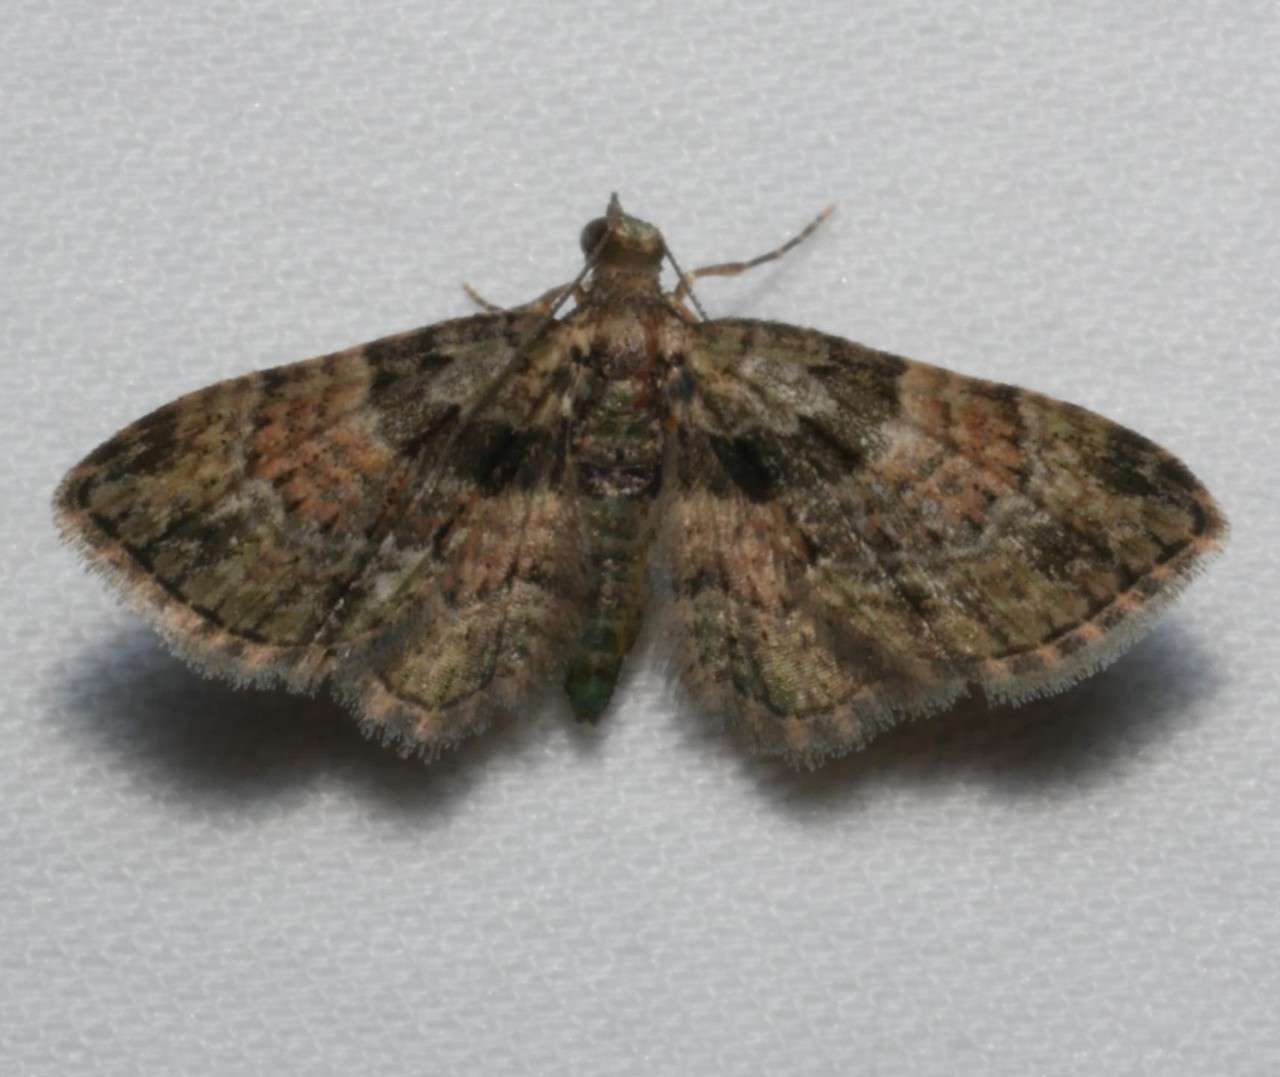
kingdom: Animalia
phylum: Arthropoda
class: Insecta
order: Lepidoptera
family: Geometridae
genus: Chloroclystis
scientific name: Chloroclystis catastreptes
